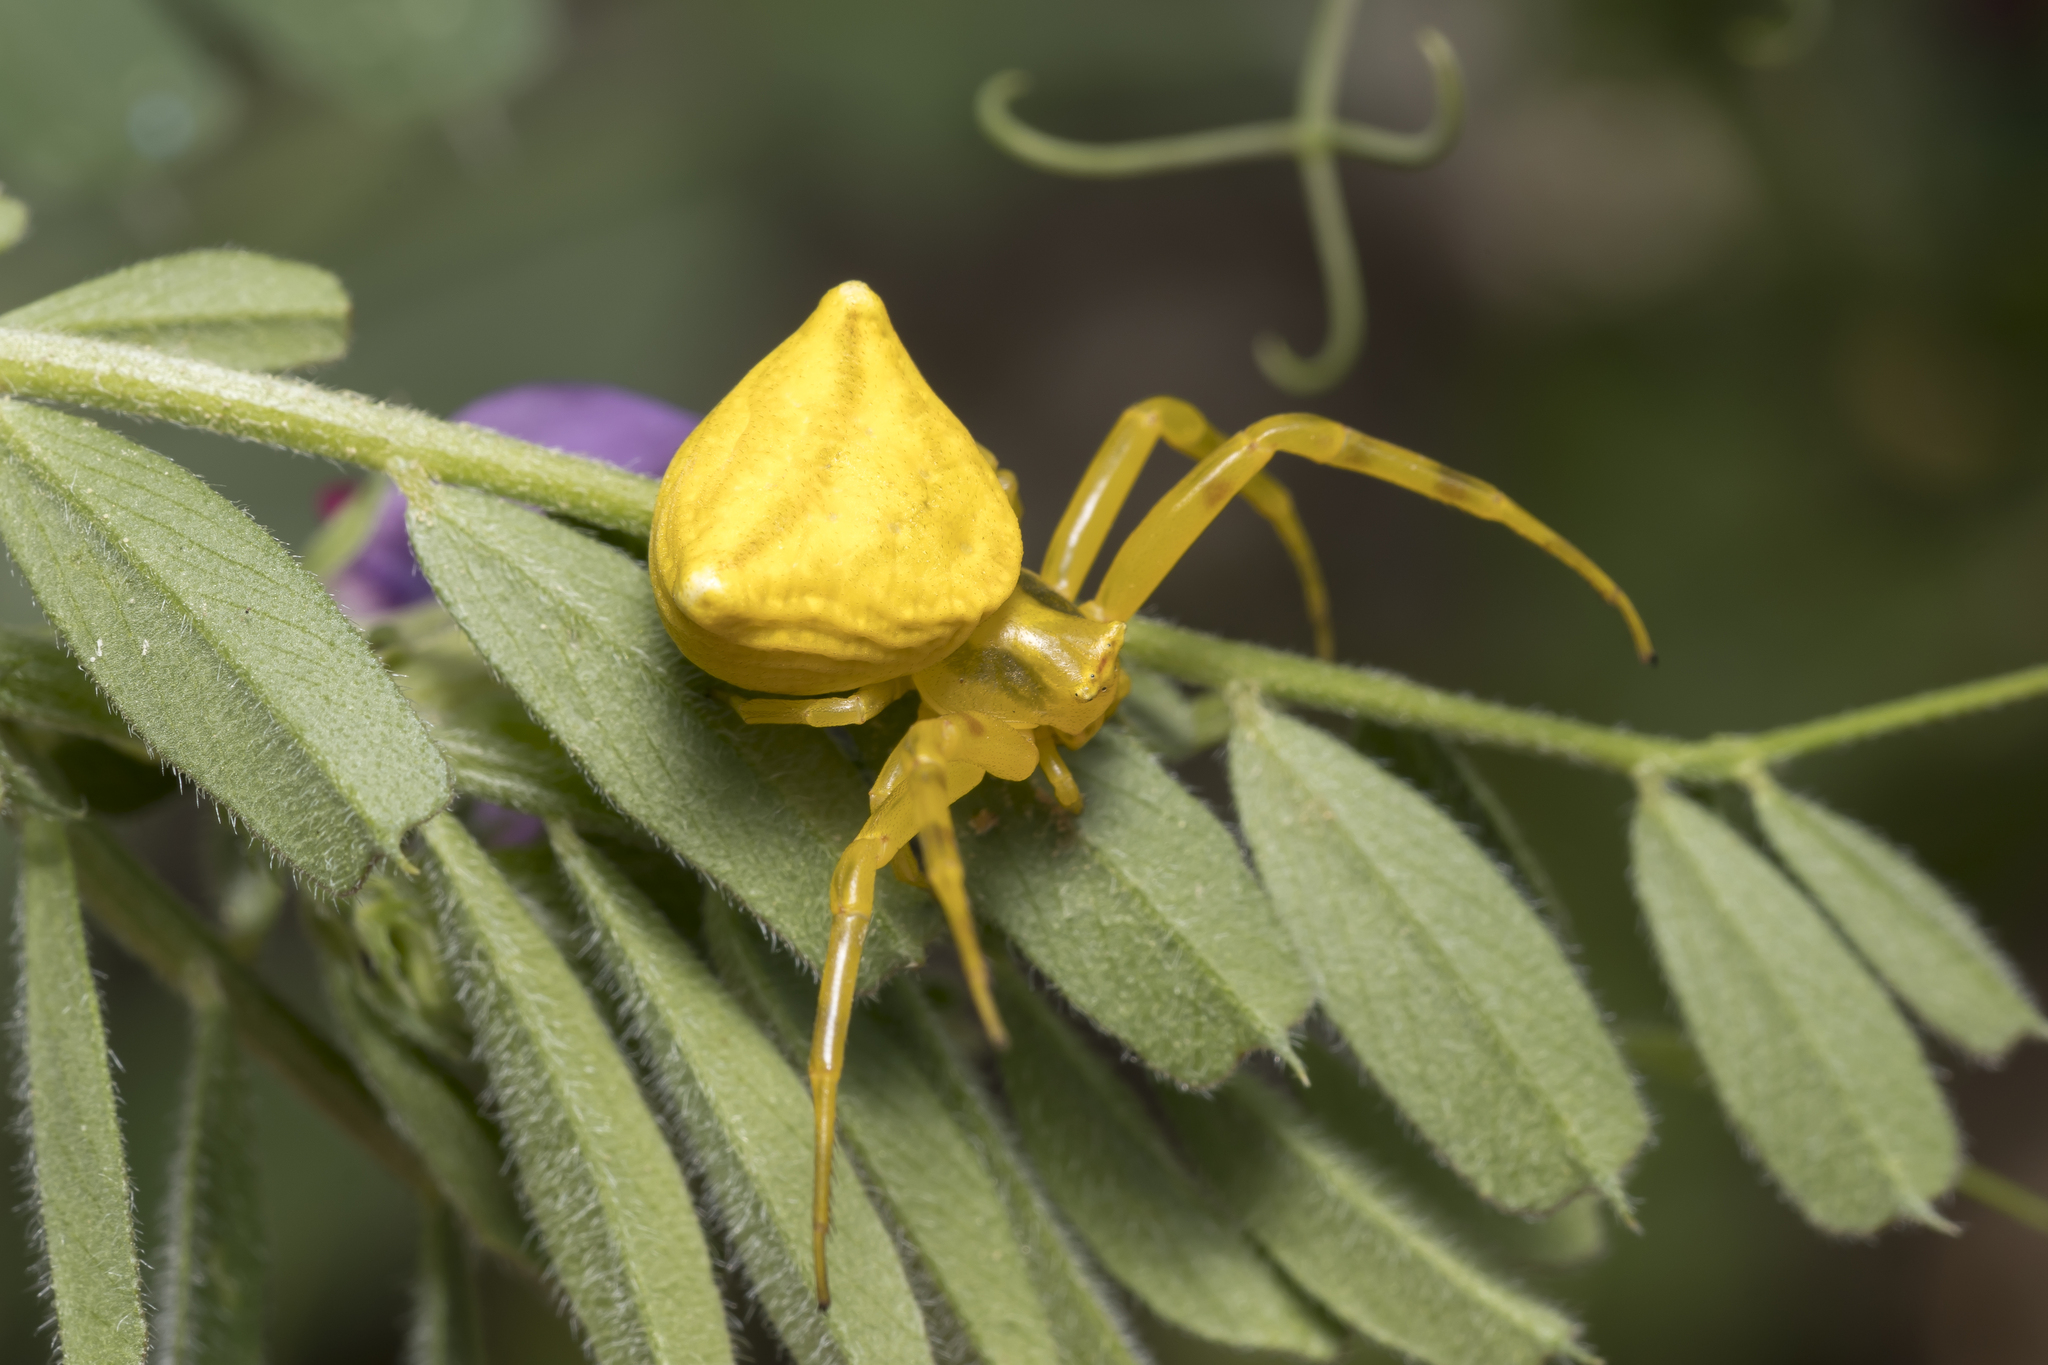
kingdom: Animalia
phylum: Arthropoda
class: Arachnida
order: Araneae
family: Thomisidae
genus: Thomisus
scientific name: Thomisus onustus
